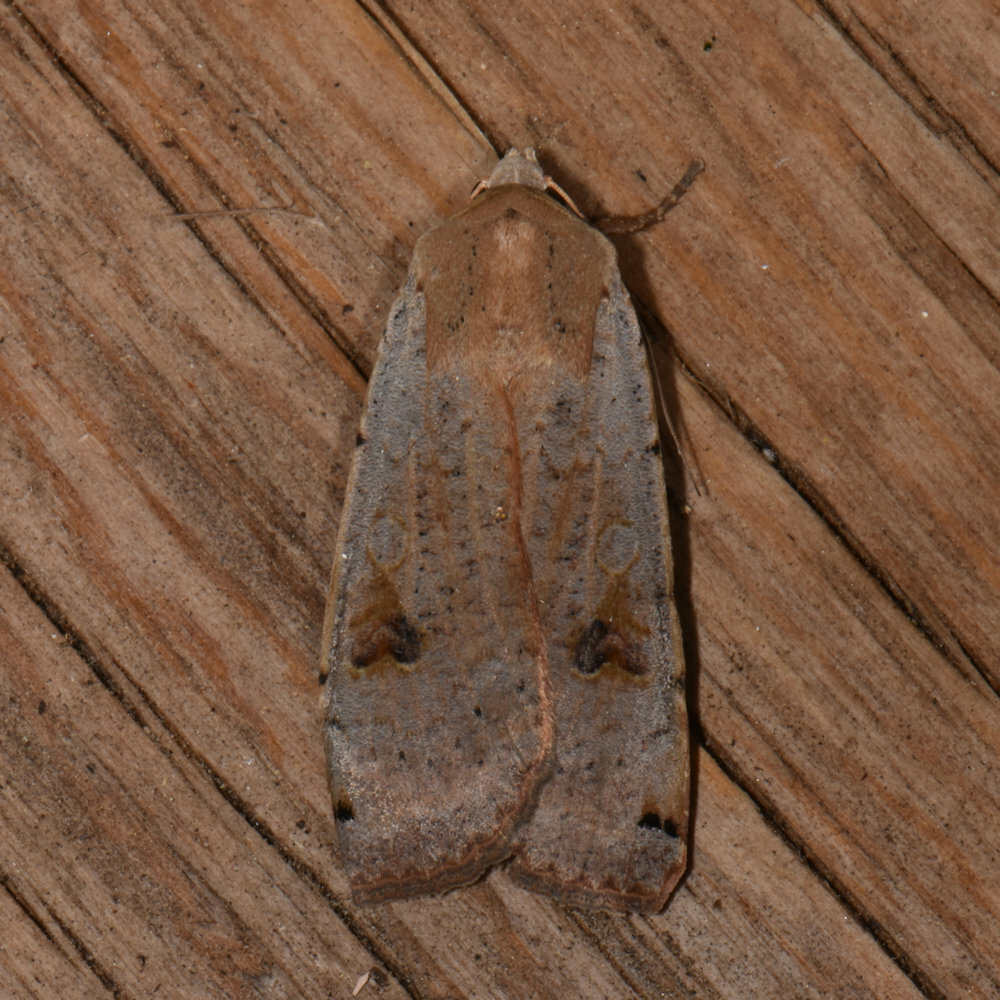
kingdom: Animalia
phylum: Arthropoda
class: Insecta
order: Lepidoptera
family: Noctuidae
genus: Noctua
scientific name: Noctua pronuba
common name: Large yellow underwing
